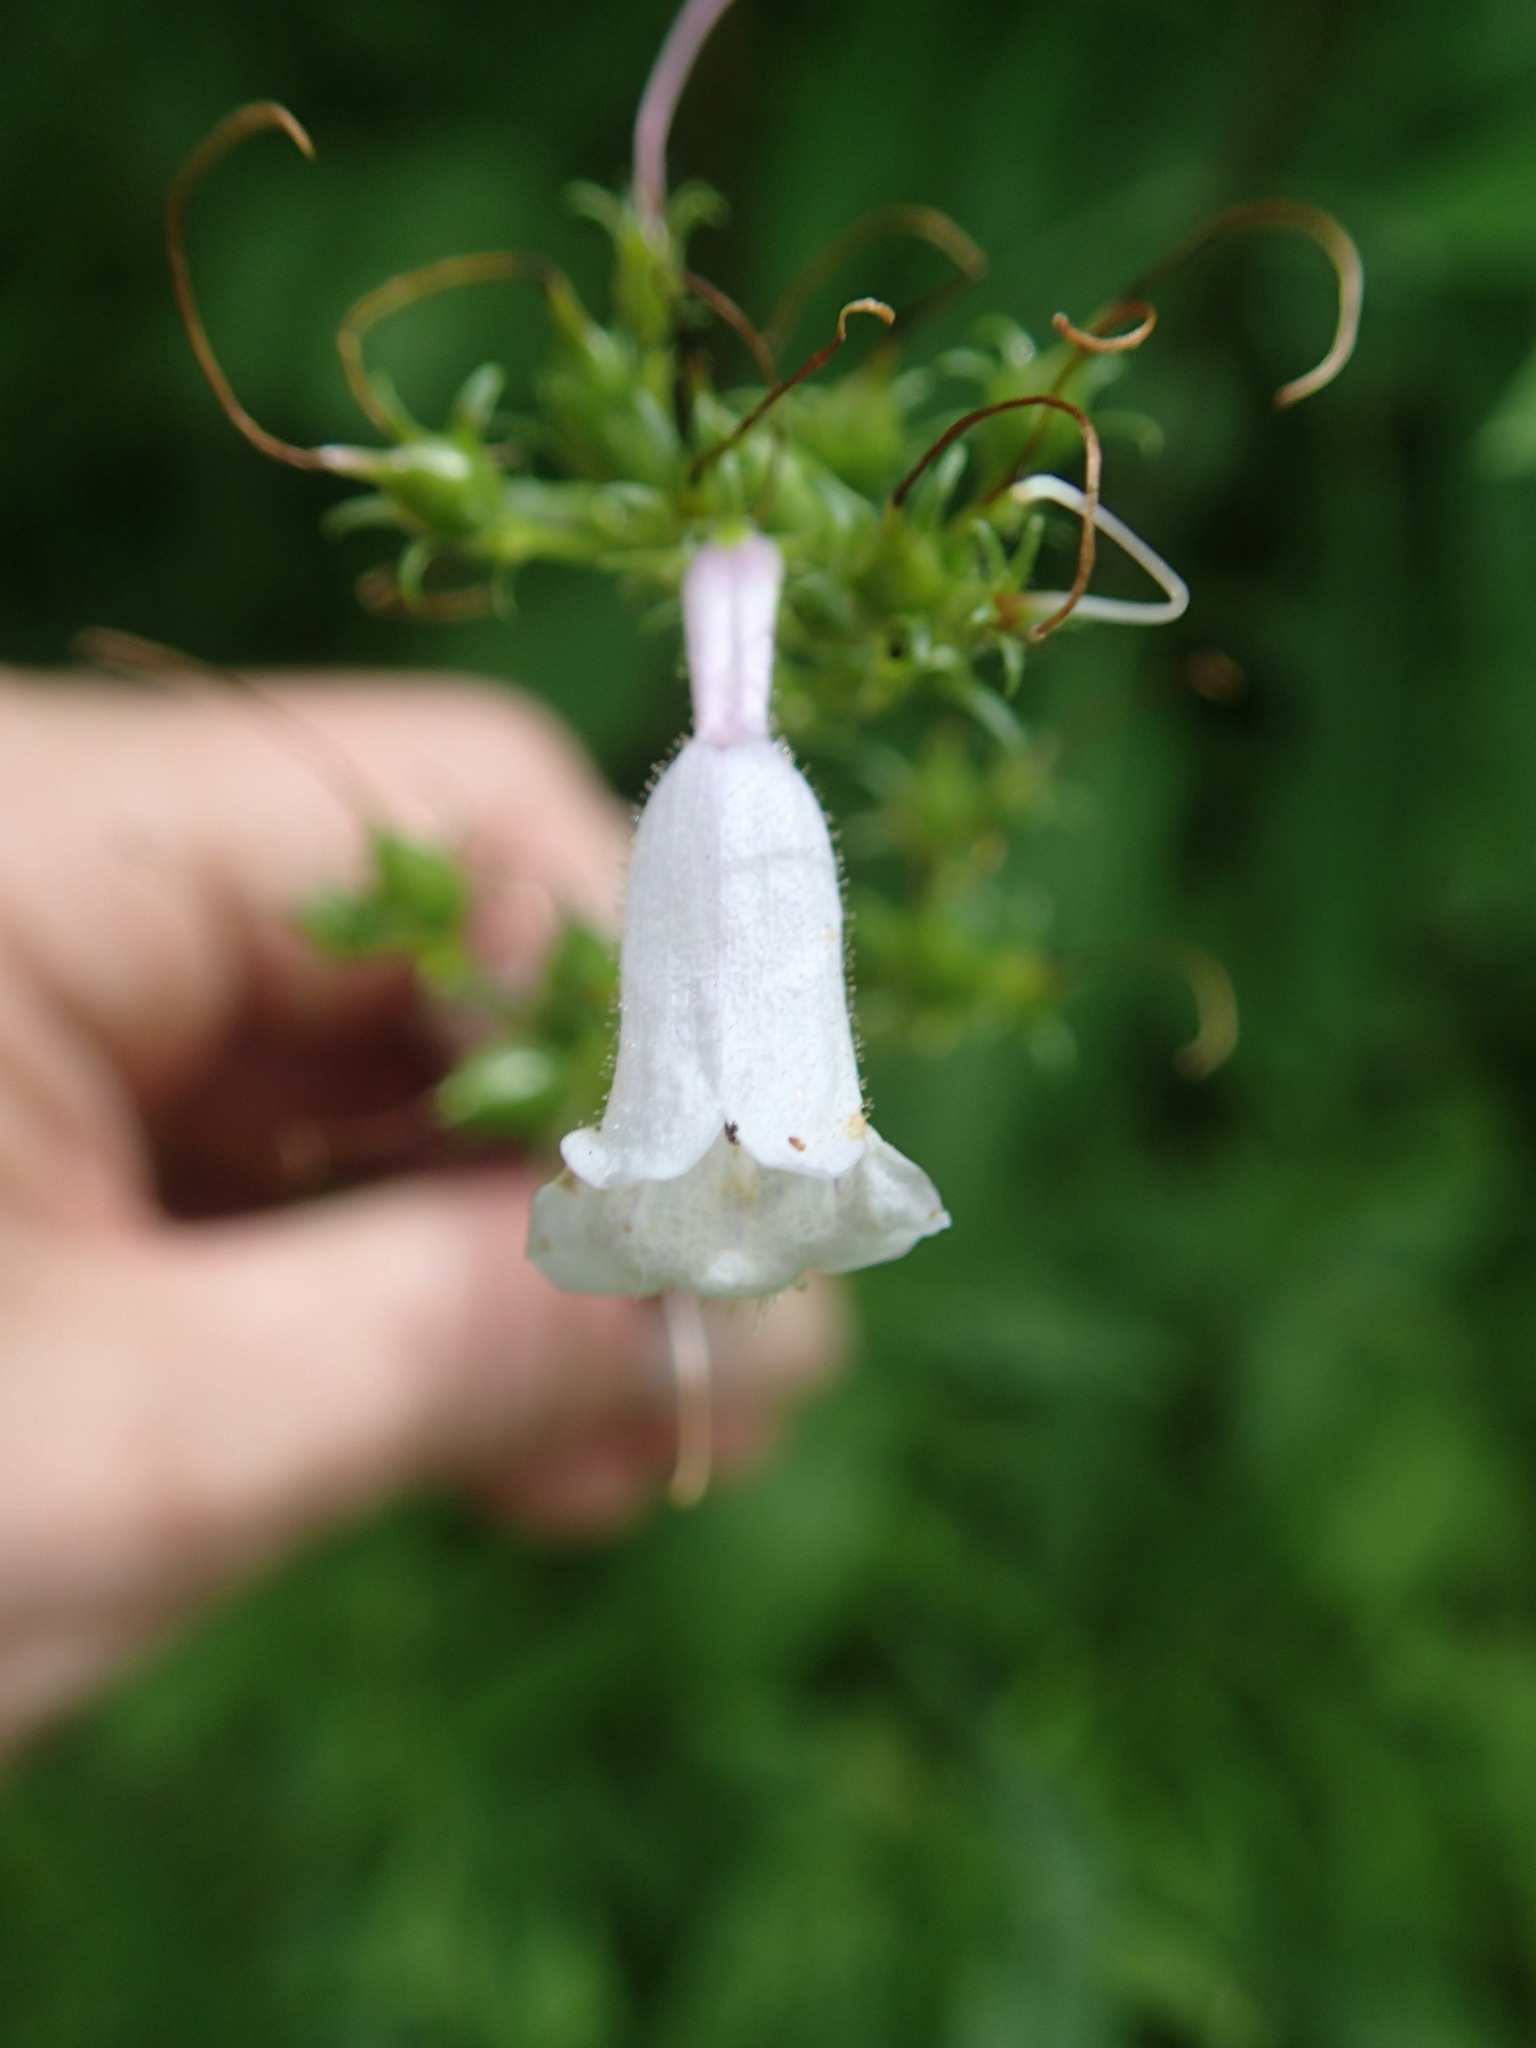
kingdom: Plantae
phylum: Tracheophyta
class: Magnoliopsida
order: Lamiales
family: Plantaginaceae
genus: Penstemon
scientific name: Penstemon digitalis
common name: Foxglove beardtongue
